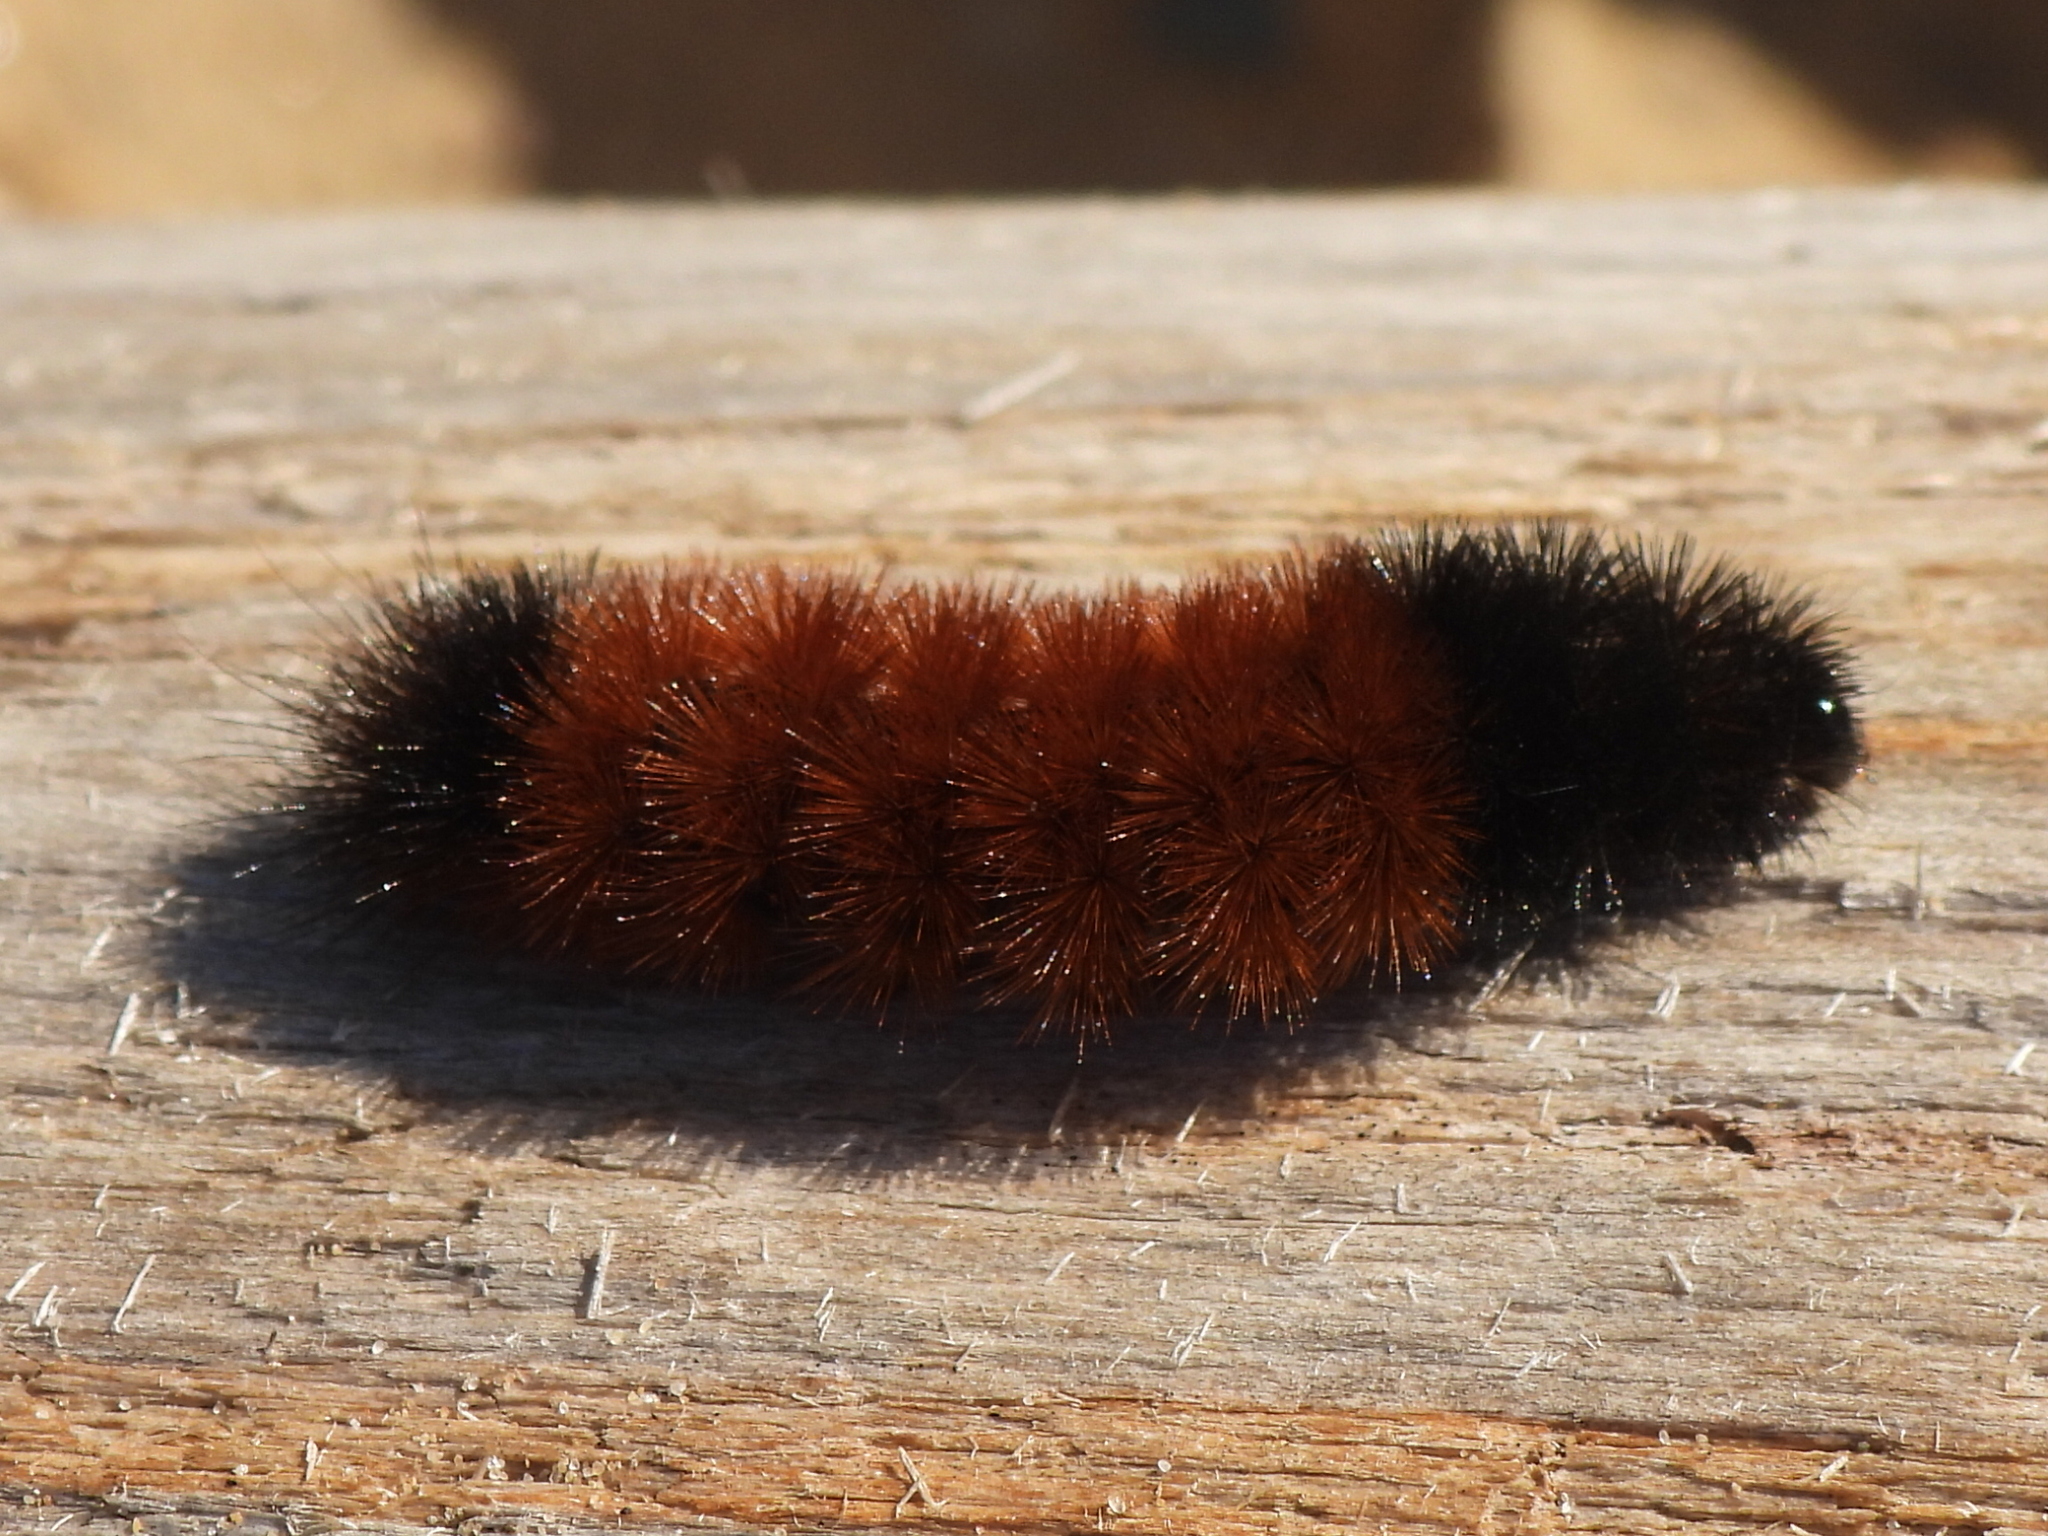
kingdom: Animalia
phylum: Arthropoda
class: Insecta
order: Lepidoptera
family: Erebidae
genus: Pyrrharctia
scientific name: Pyrrharctia isabella
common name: Isabella tiger moth
